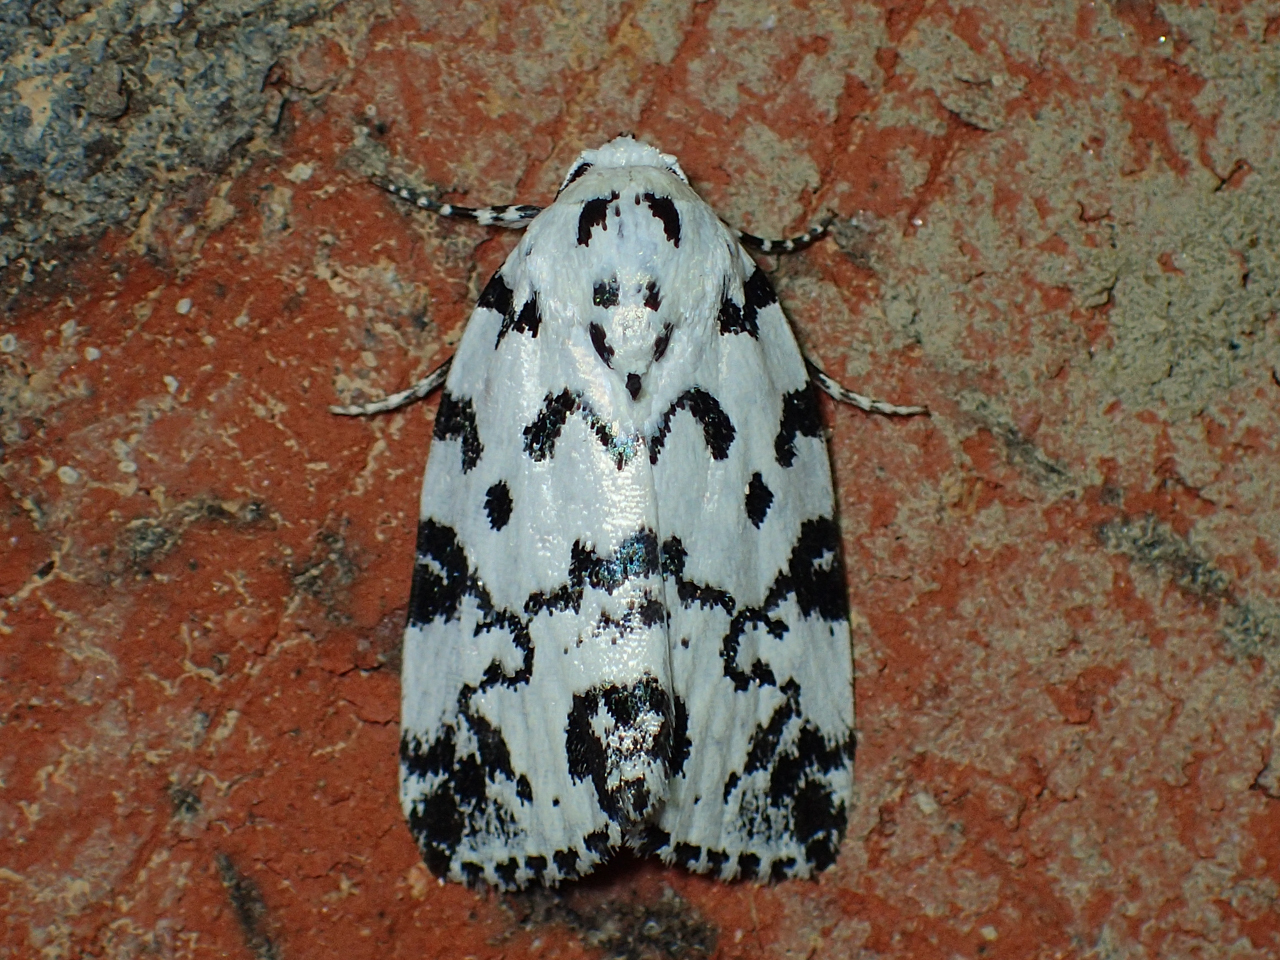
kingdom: Animalia
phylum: Arthropoda
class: Insecta
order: Lepidoptera
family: Noctuidae
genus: Polygrammate
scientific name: Polygrammate hebraeicum
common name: Hebrew moth
